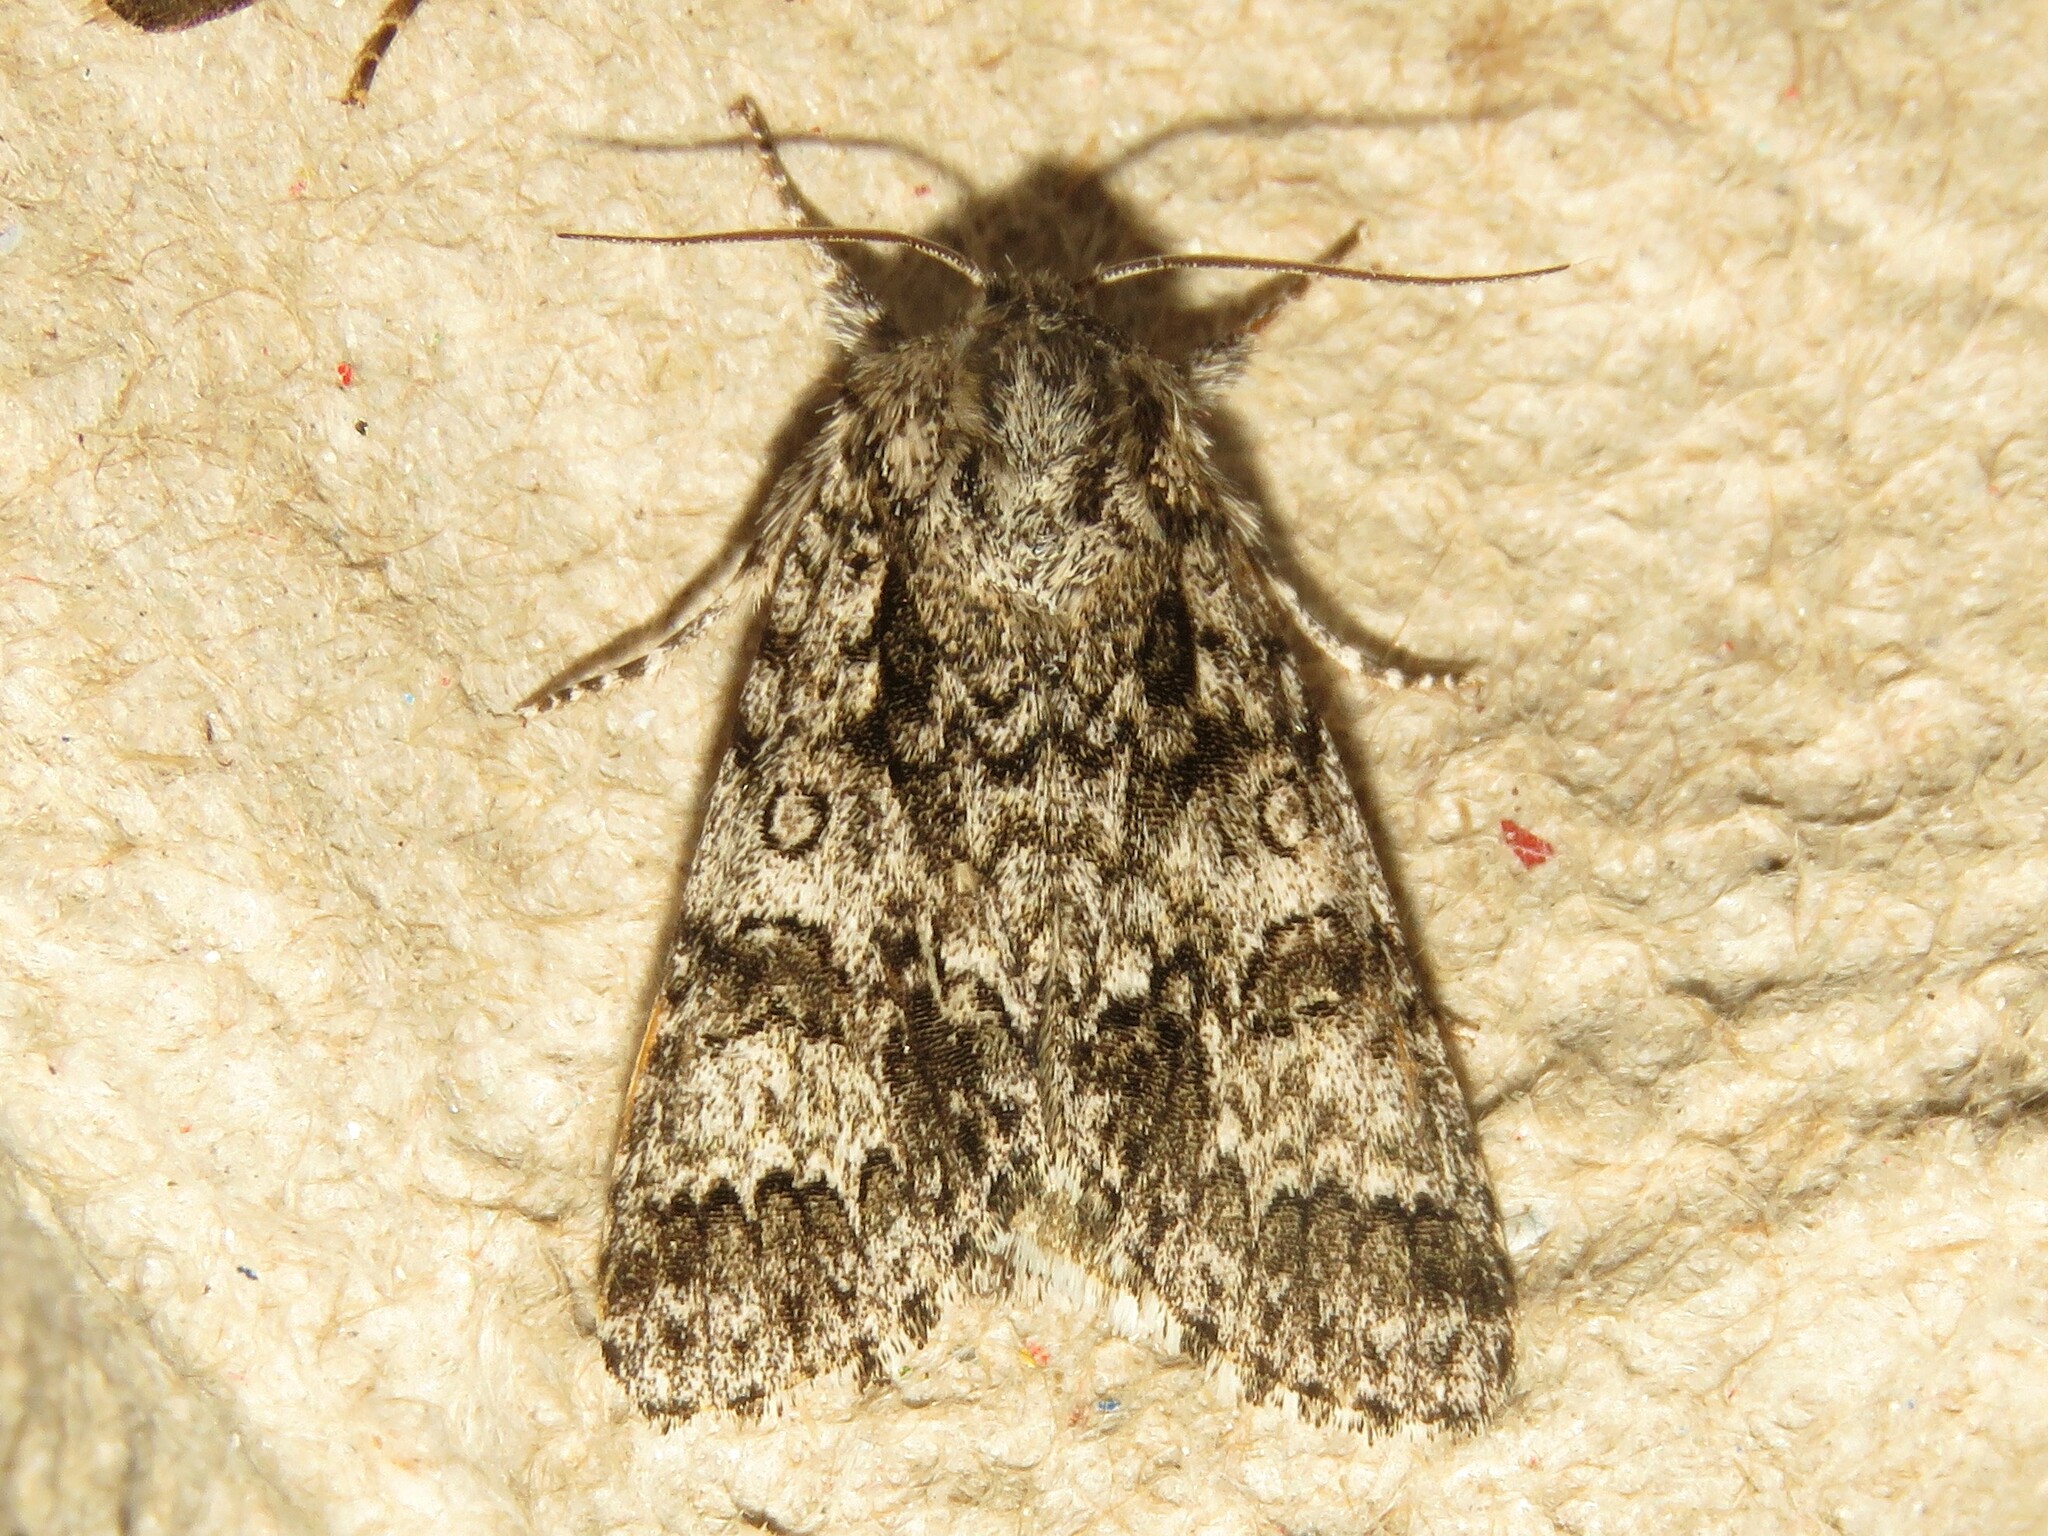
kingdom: Animalia
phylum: Arthropoda
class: Insecta
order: Lepidoptera
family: Noctuidae
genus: Acronicta
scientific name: Acronicta impressa
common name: Impressed dagger
